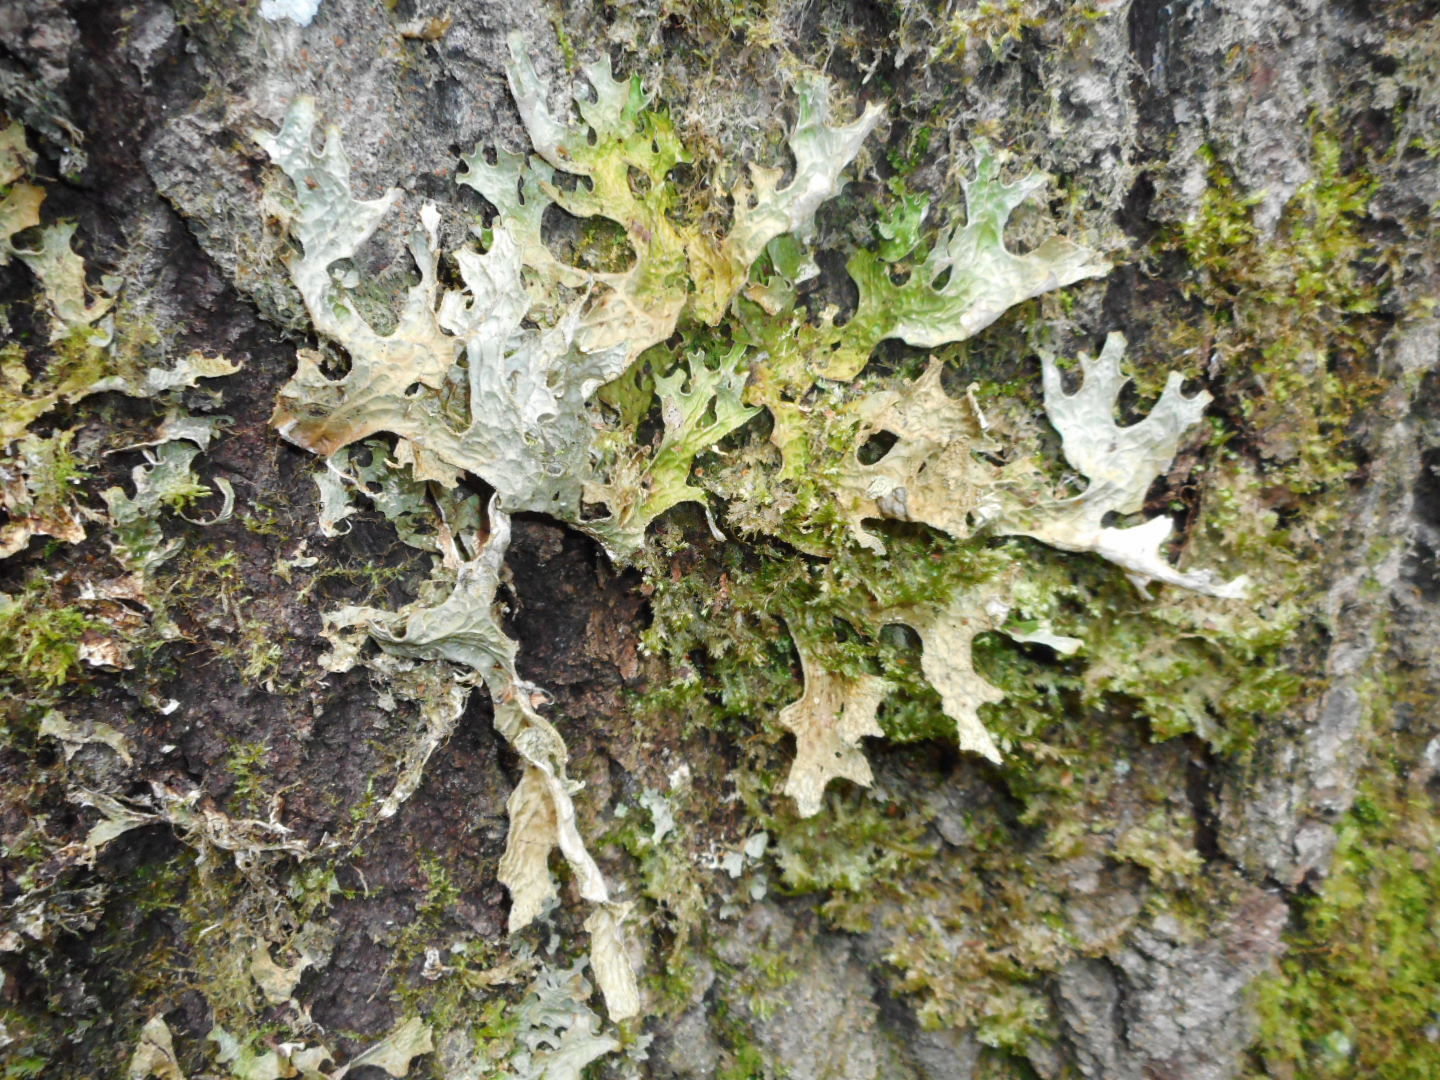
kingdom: Fungi
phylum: Ascomycota
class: Lecanoromycetes
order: Peltigerales
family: Lobariaceae
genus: Lobaria
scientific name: Lobaria pulmonaria
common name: Lungwort
